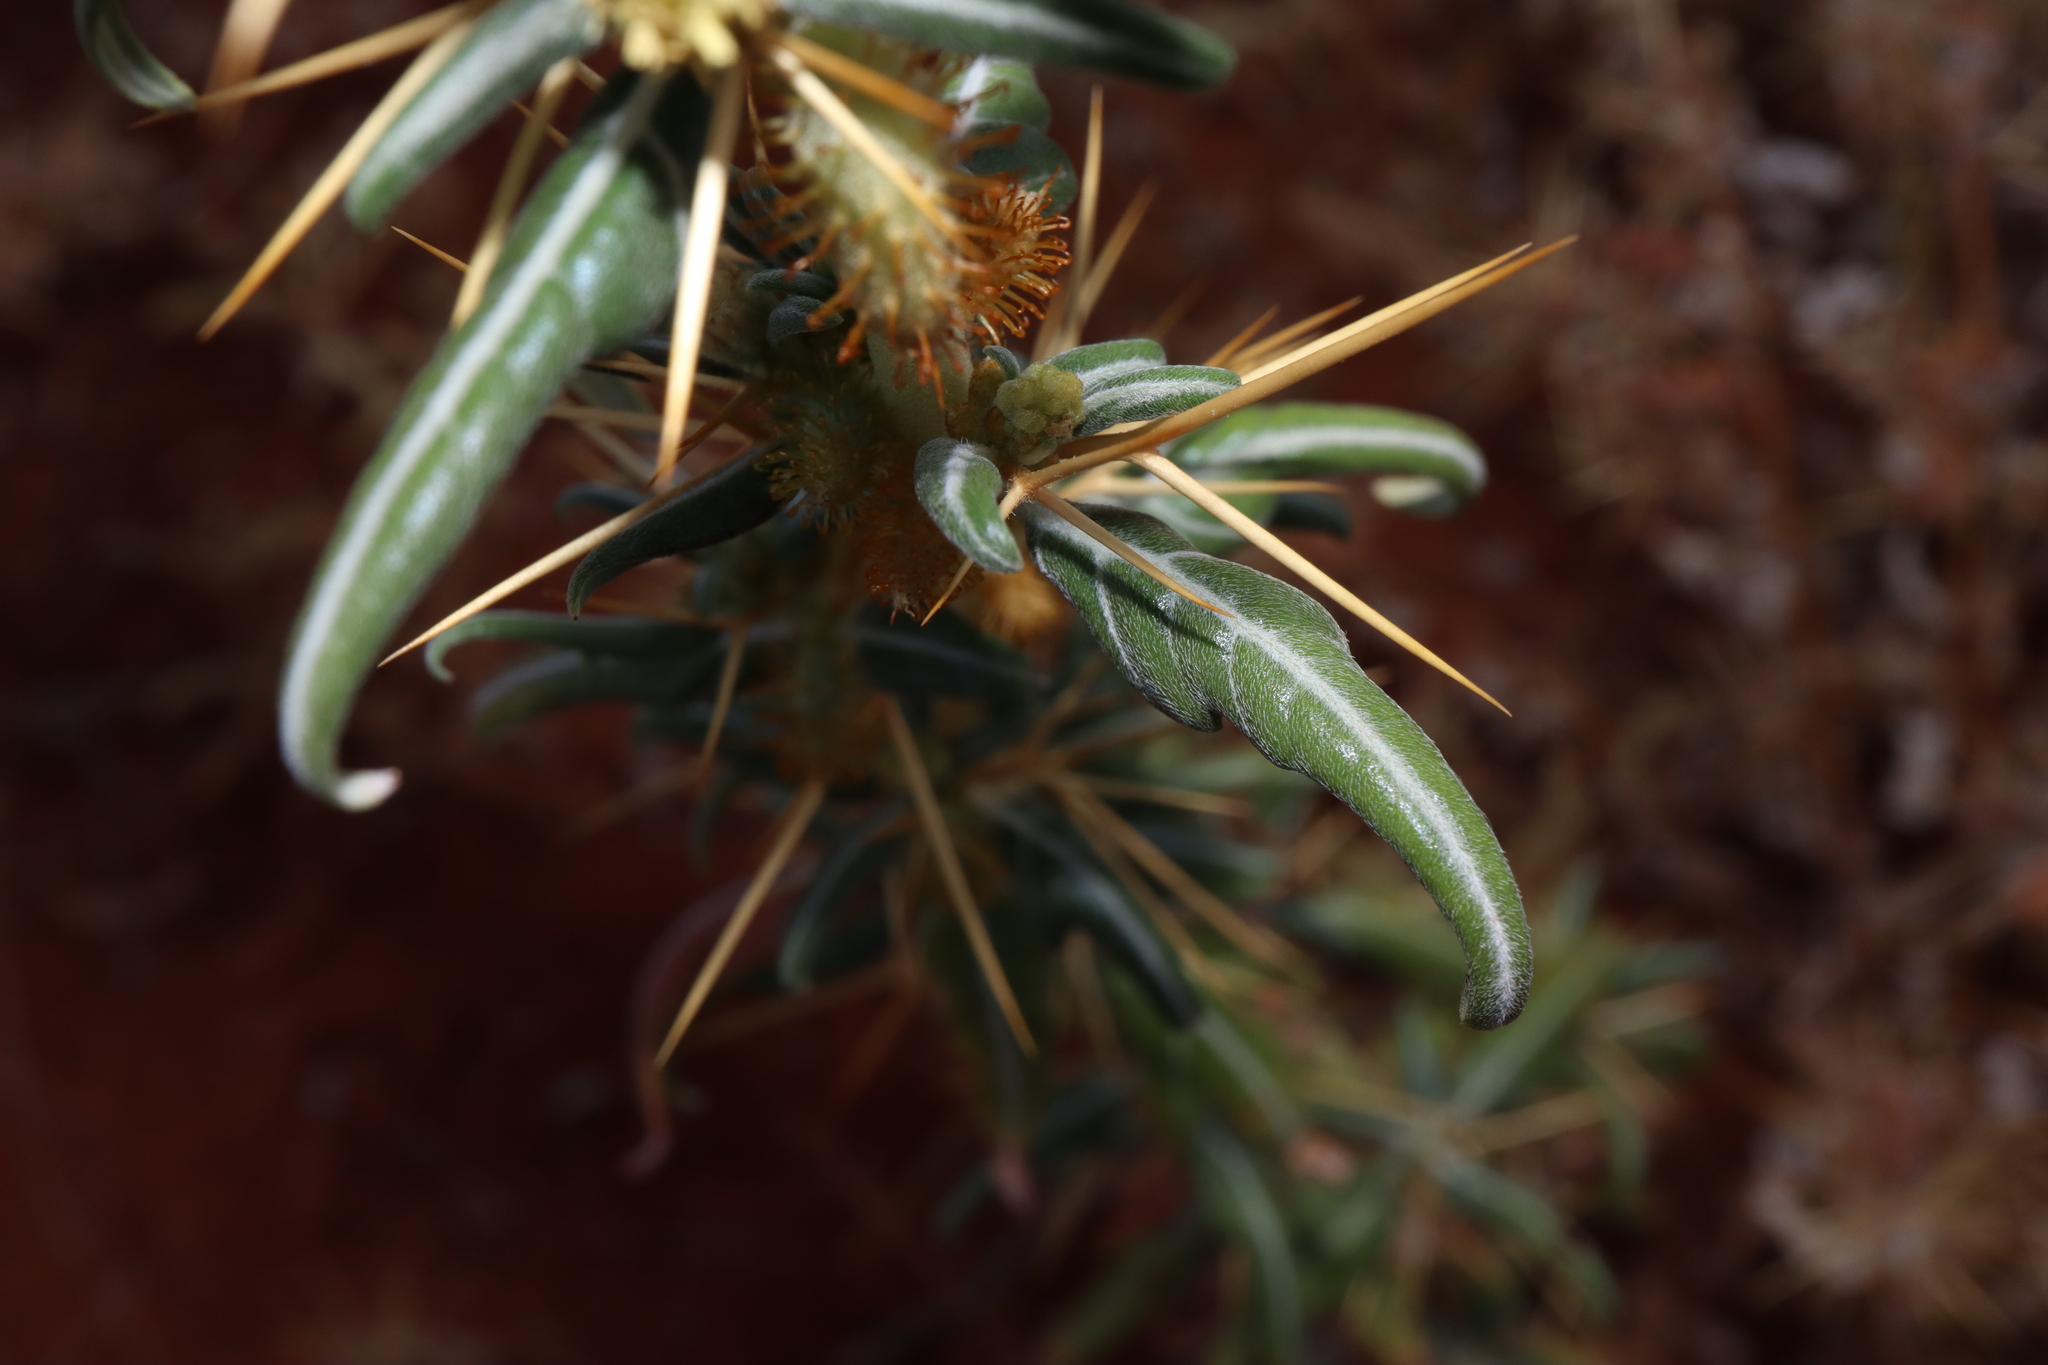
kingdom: Plantae
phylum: Tracheophyta
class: Magnoliopsida
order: Asterales
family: Asteraceae
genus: Xanthium
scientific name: Xanthium spinosum
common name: Spiny cocklebur
